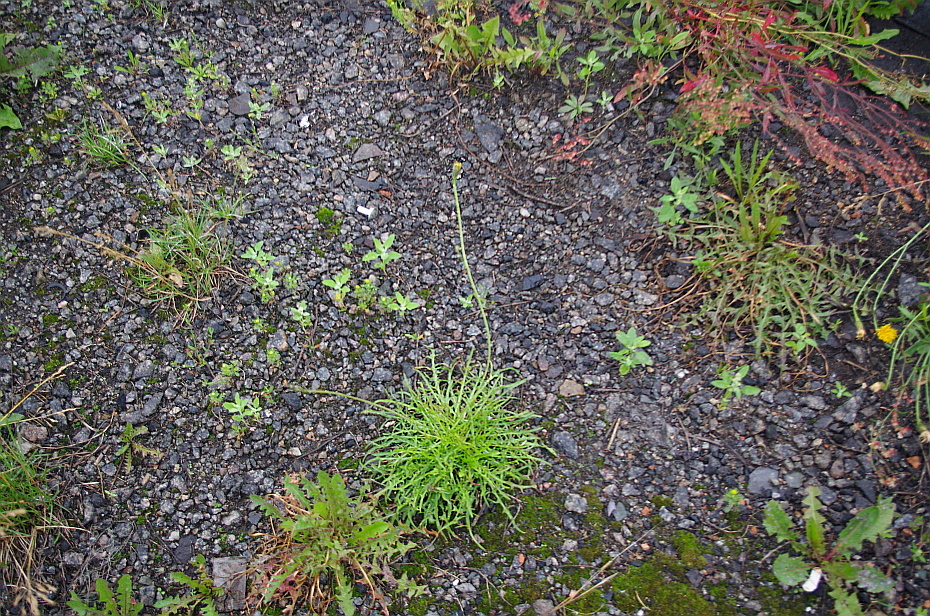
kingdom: Plantae
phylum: Tracheophyta
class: Magnoliopsida
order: Asterales
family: Asteraceae
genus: Scorzoneroides
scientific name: Scorzoneroides autumnalis
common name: Autumn hawkbit
